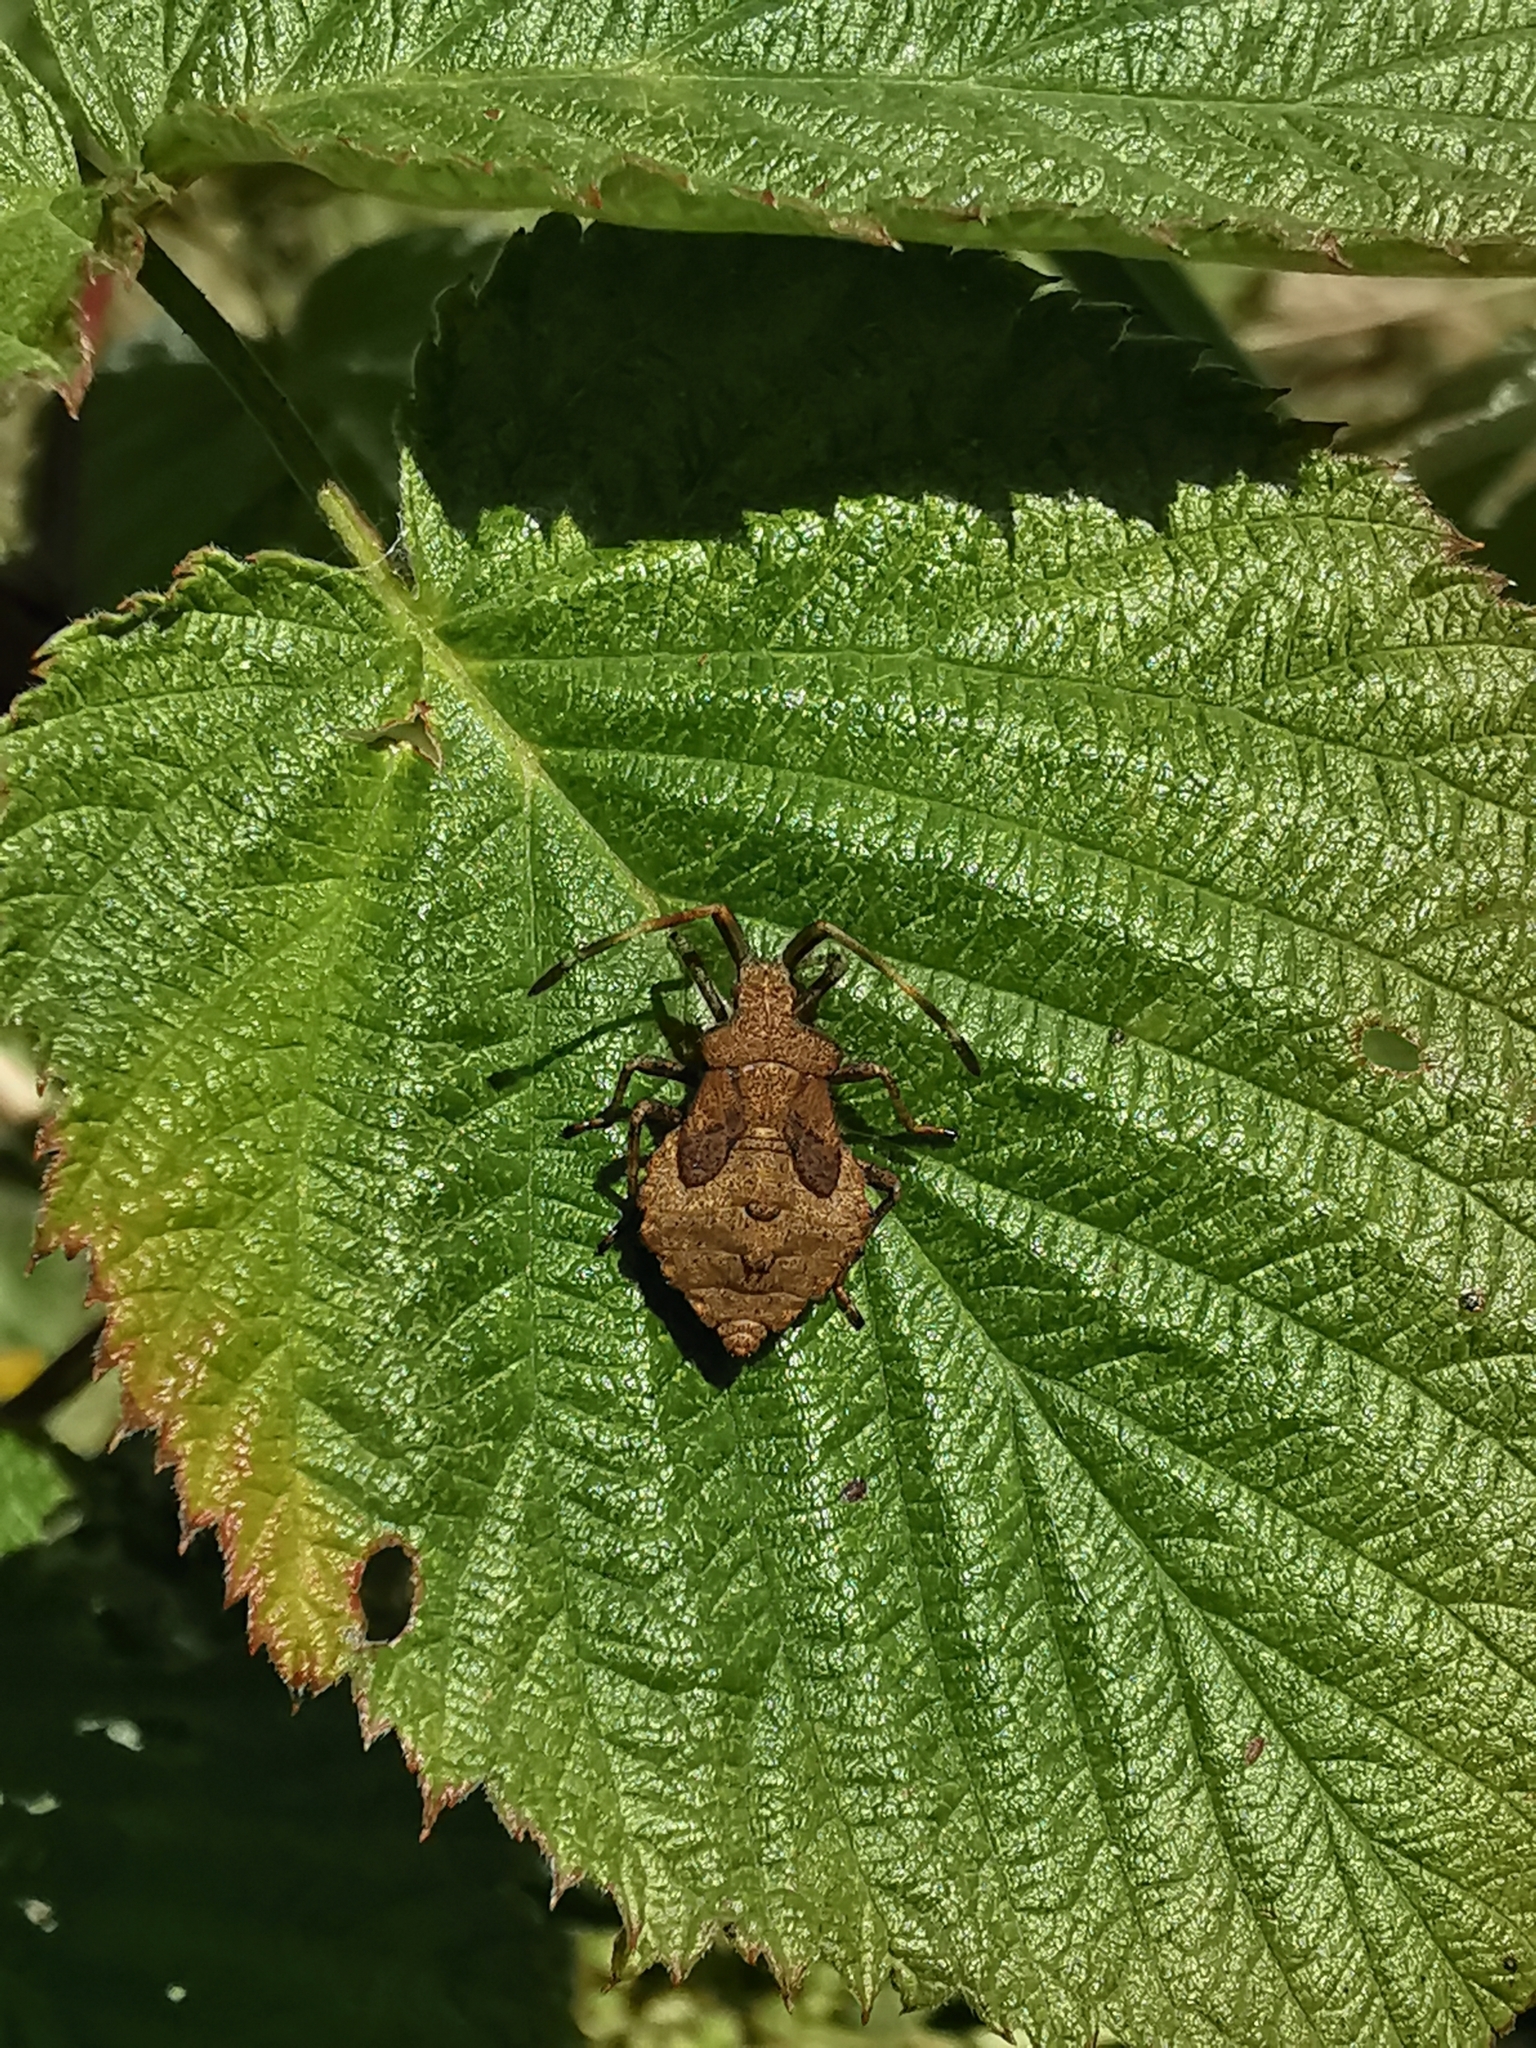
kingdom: Animalia
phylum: Arthropoda
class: Insecta
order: Hemiptera
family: Coreidae
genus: Coreus
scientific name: Coreus marginatus
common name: Dock bug
